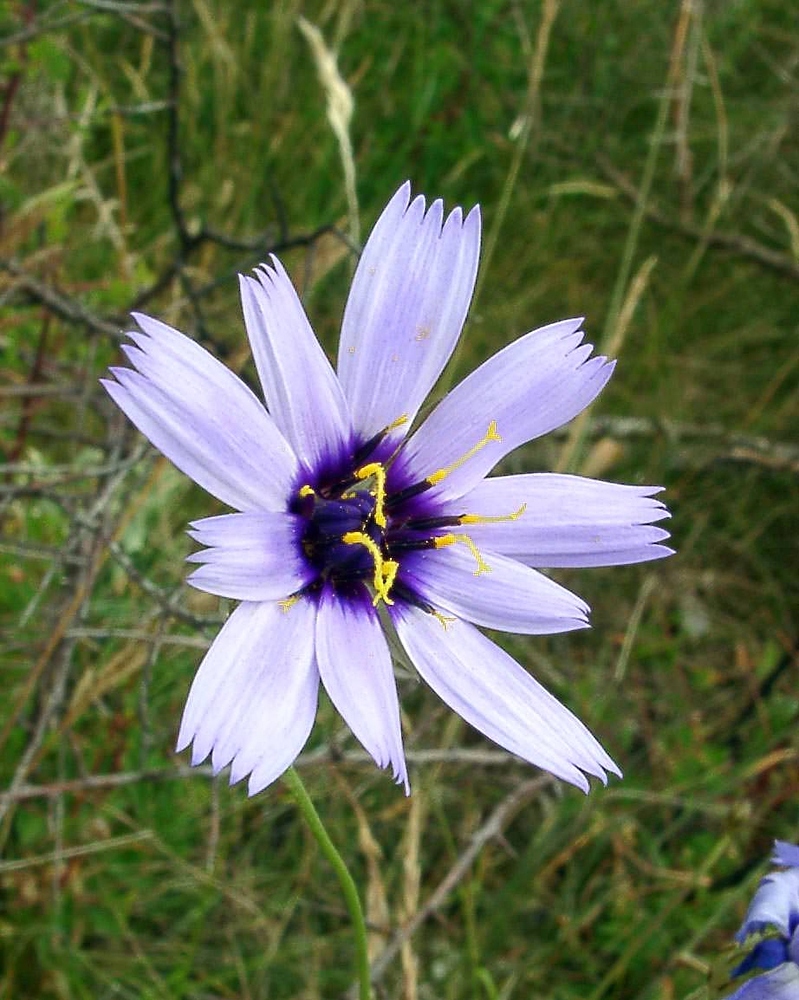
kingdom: Plantae
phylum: Tracheophyta
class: Magnoliopsida
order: Asterales
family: Asteraceae
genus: Catananche
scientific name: Catananche caerulea
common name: Blue cupidone
